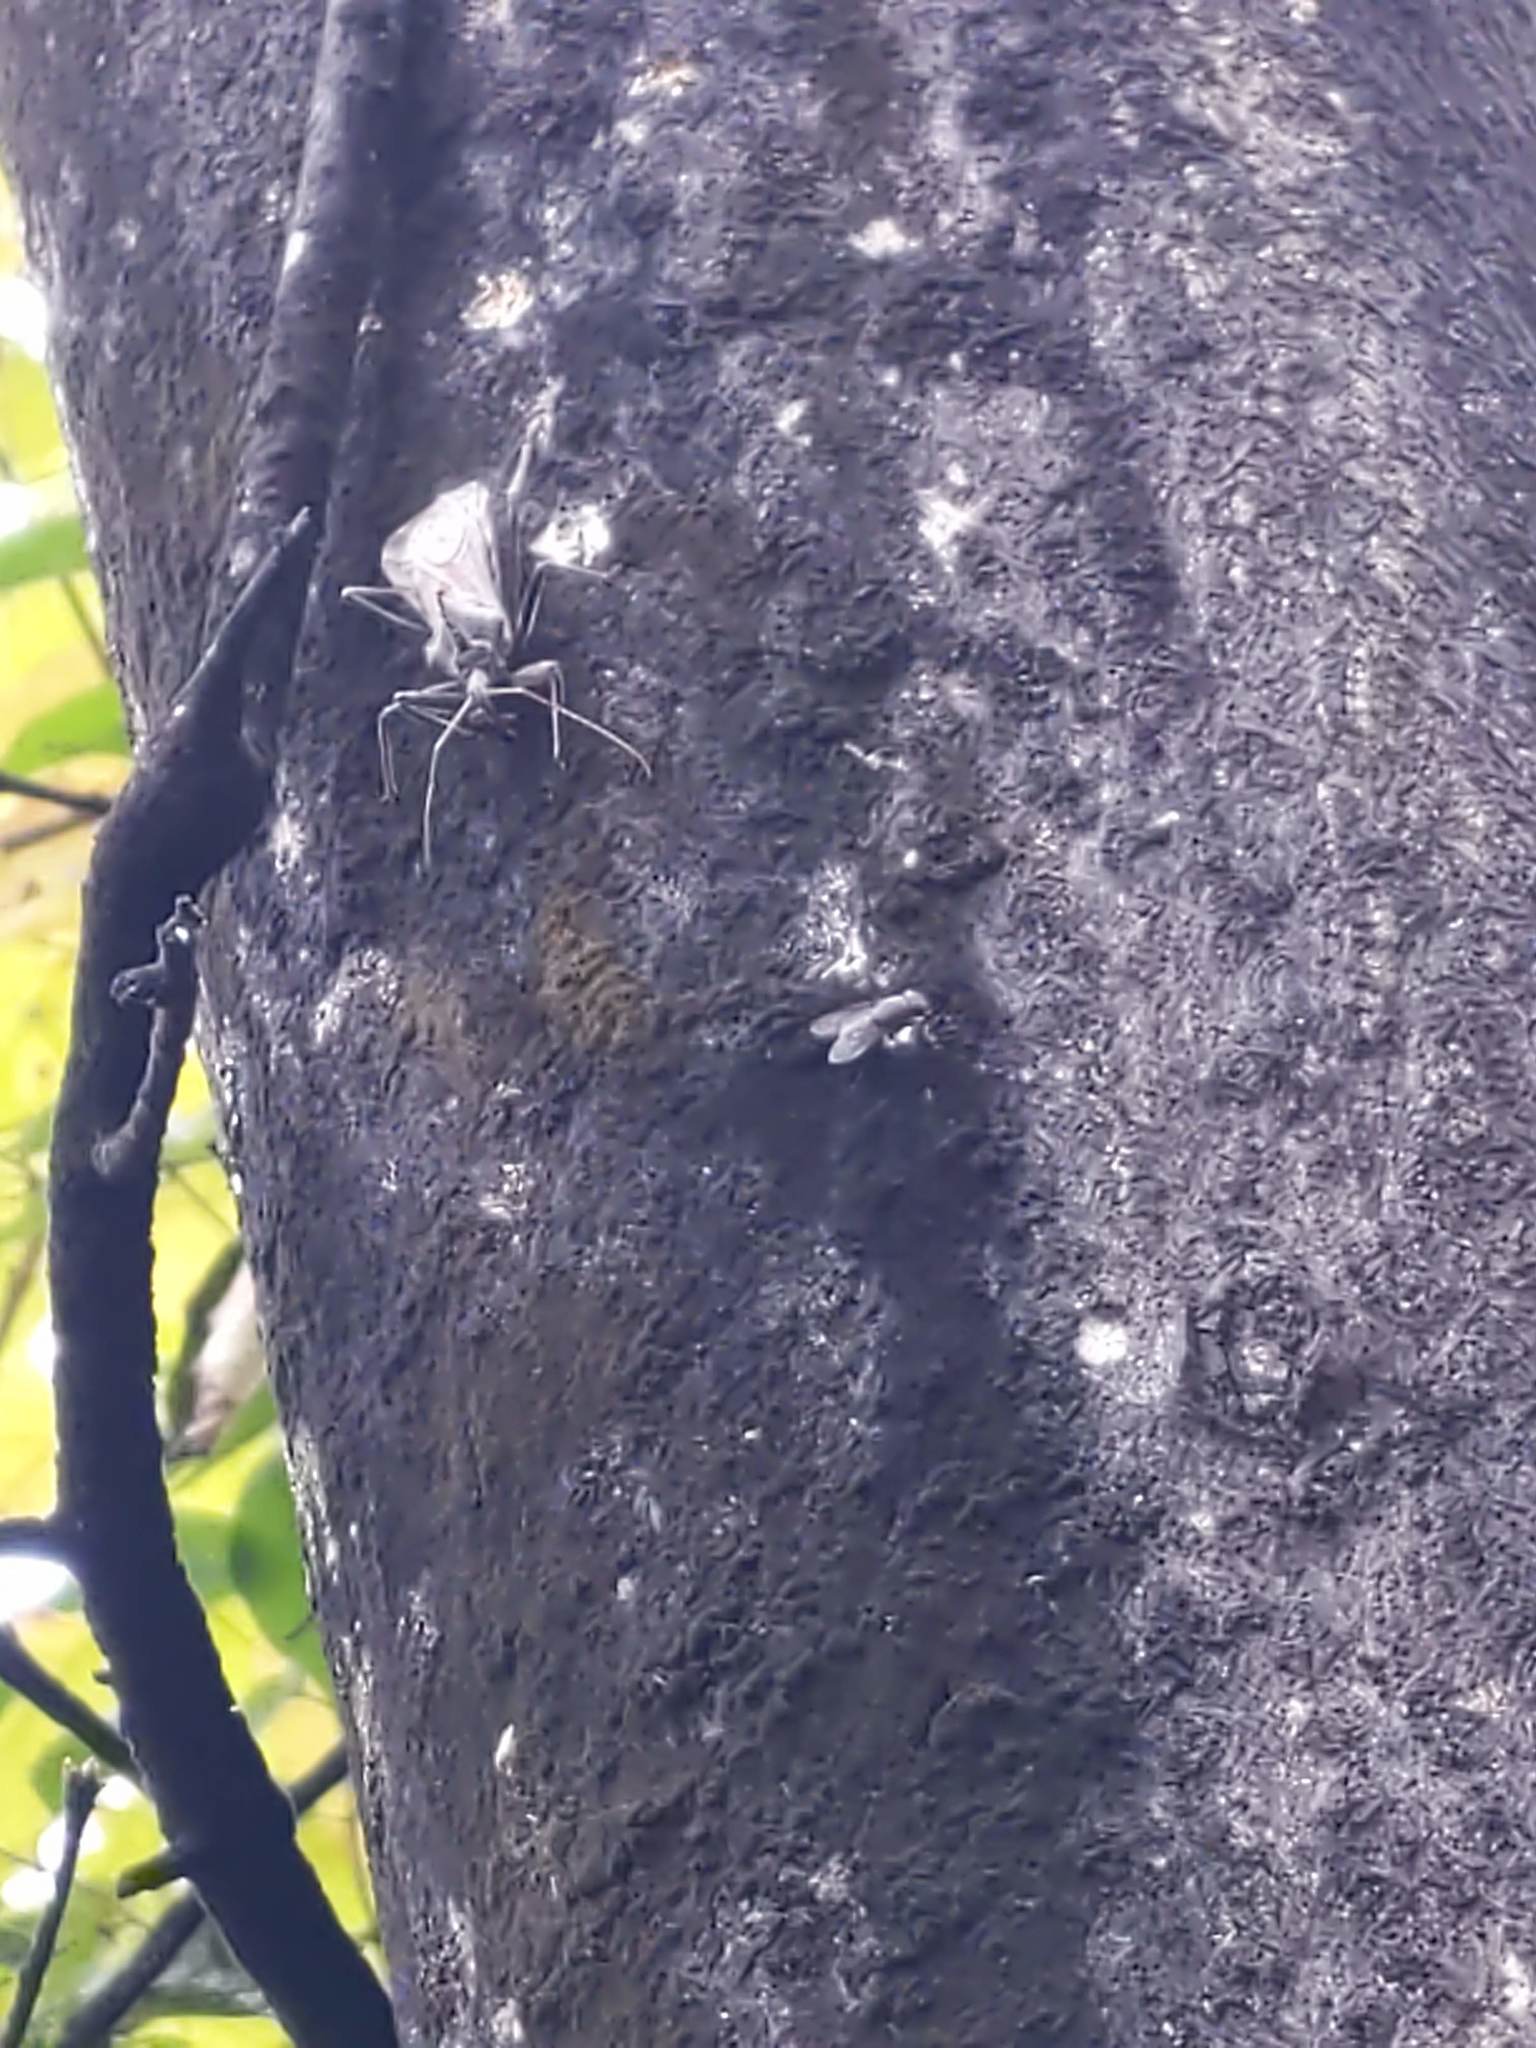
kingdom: Animalia
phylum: Arthropoda
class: Insecta
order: Hemiptera
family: Reduviidae
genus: Arilus
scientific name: Arilus cristatus
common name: North american wheel bug
